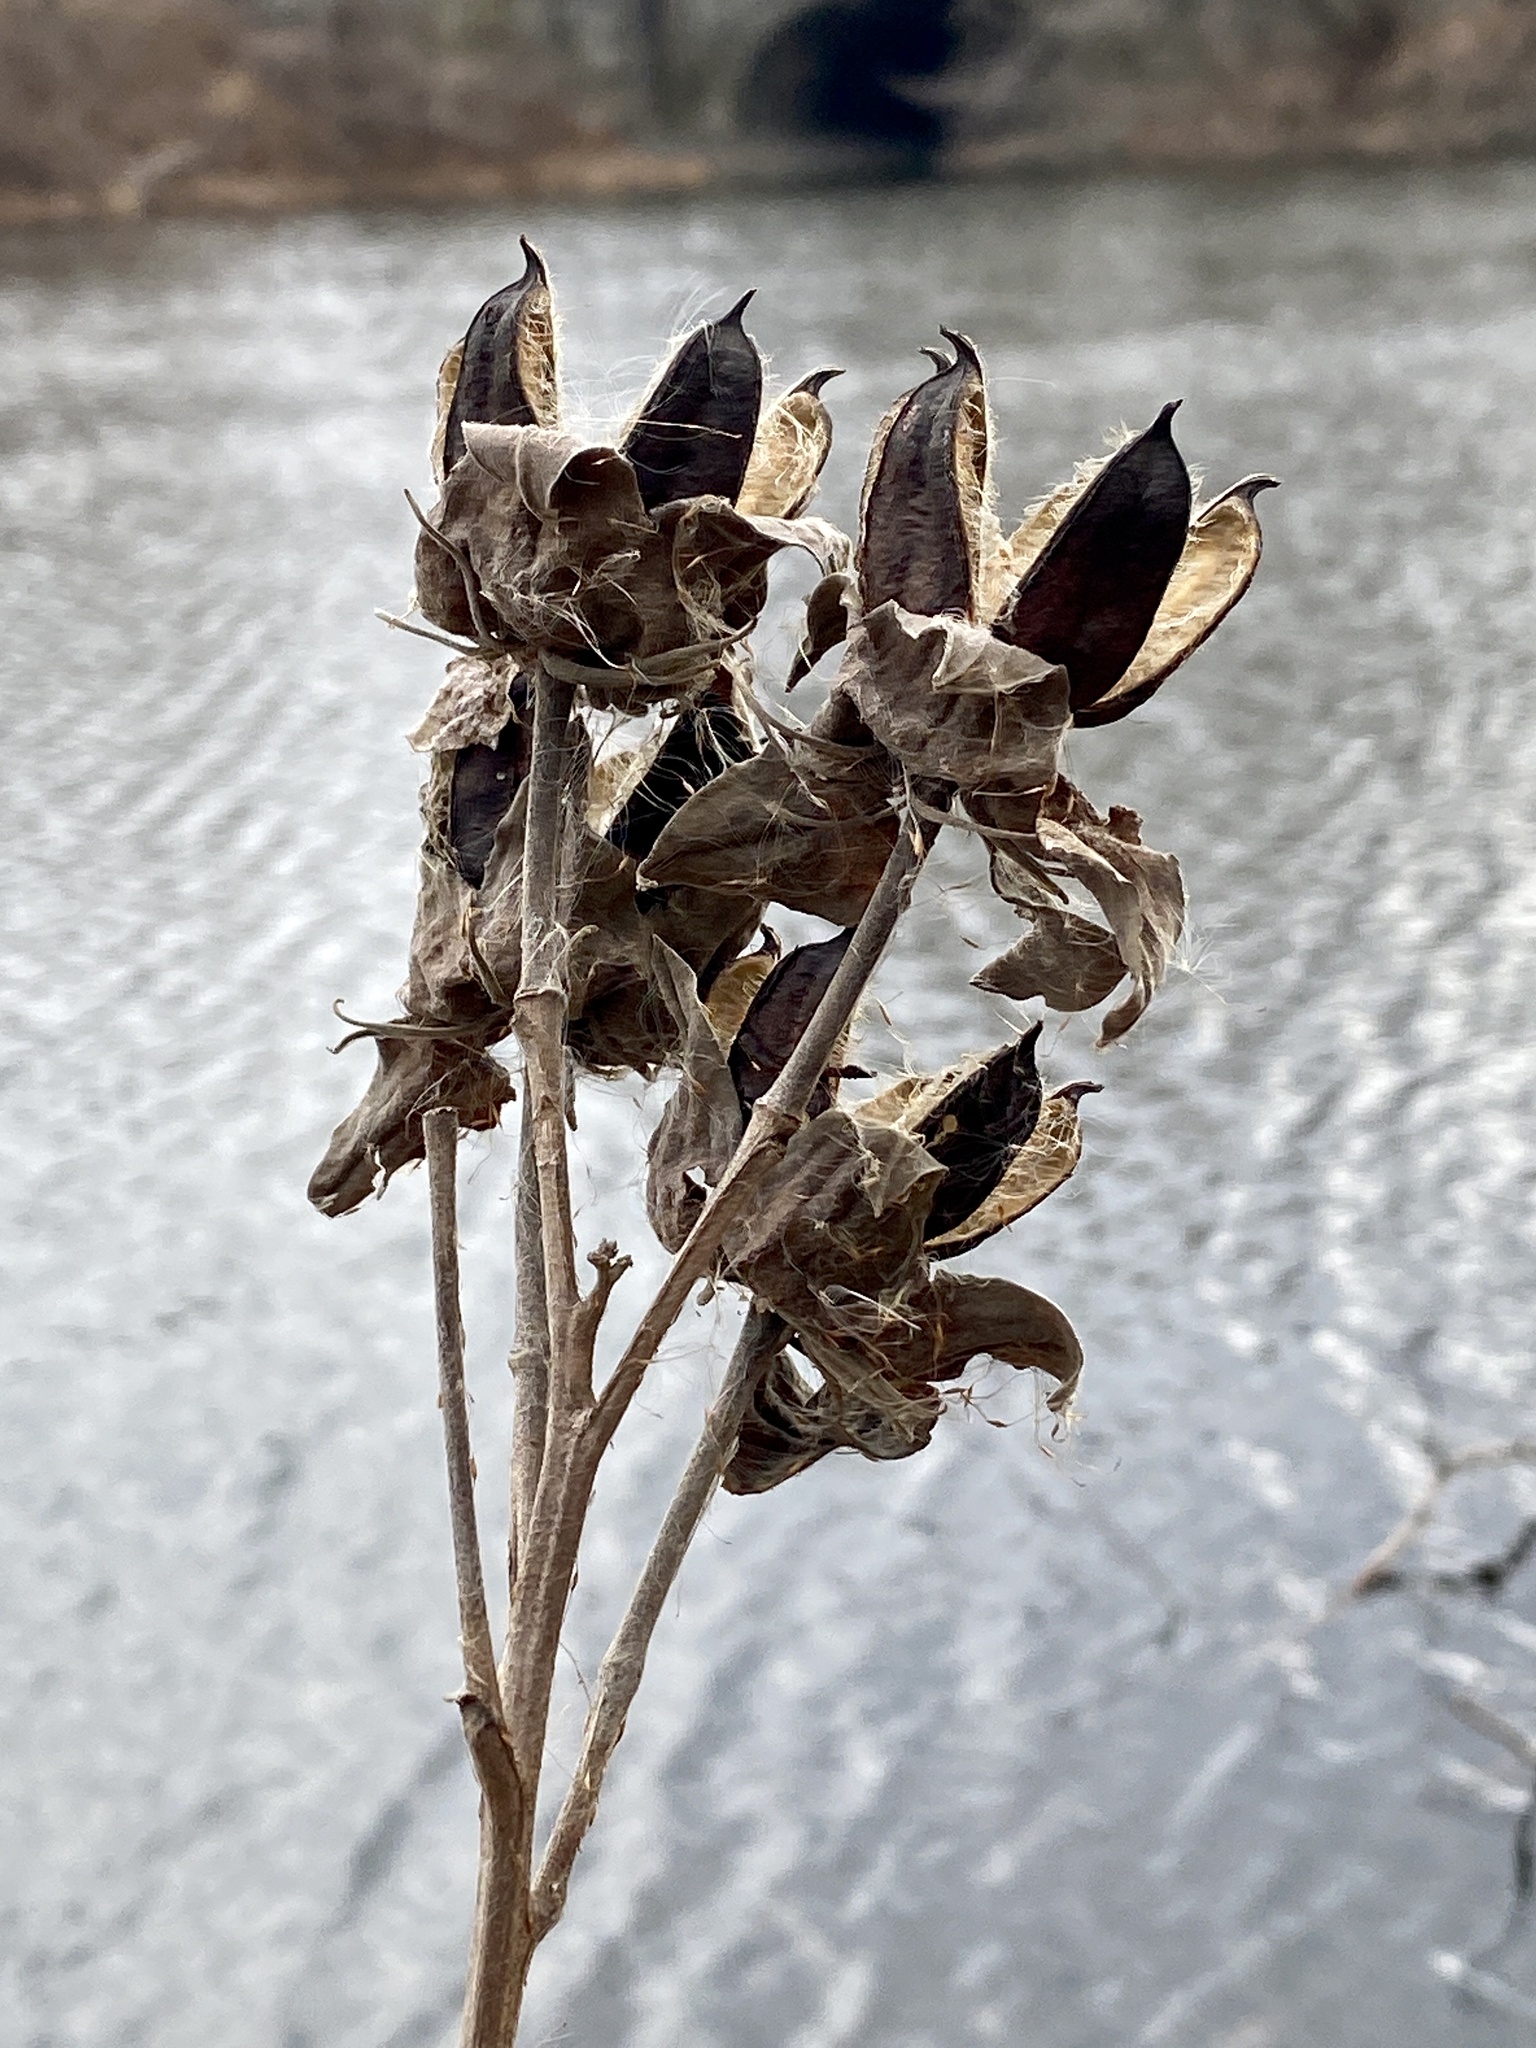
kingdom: Plantae
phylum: Tracheophyta
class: Magnoliopsida
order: Malvales
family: Malvaceae
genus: Hibiscus
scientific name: Hibiscus moscheutos
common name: Common rose-mallow
